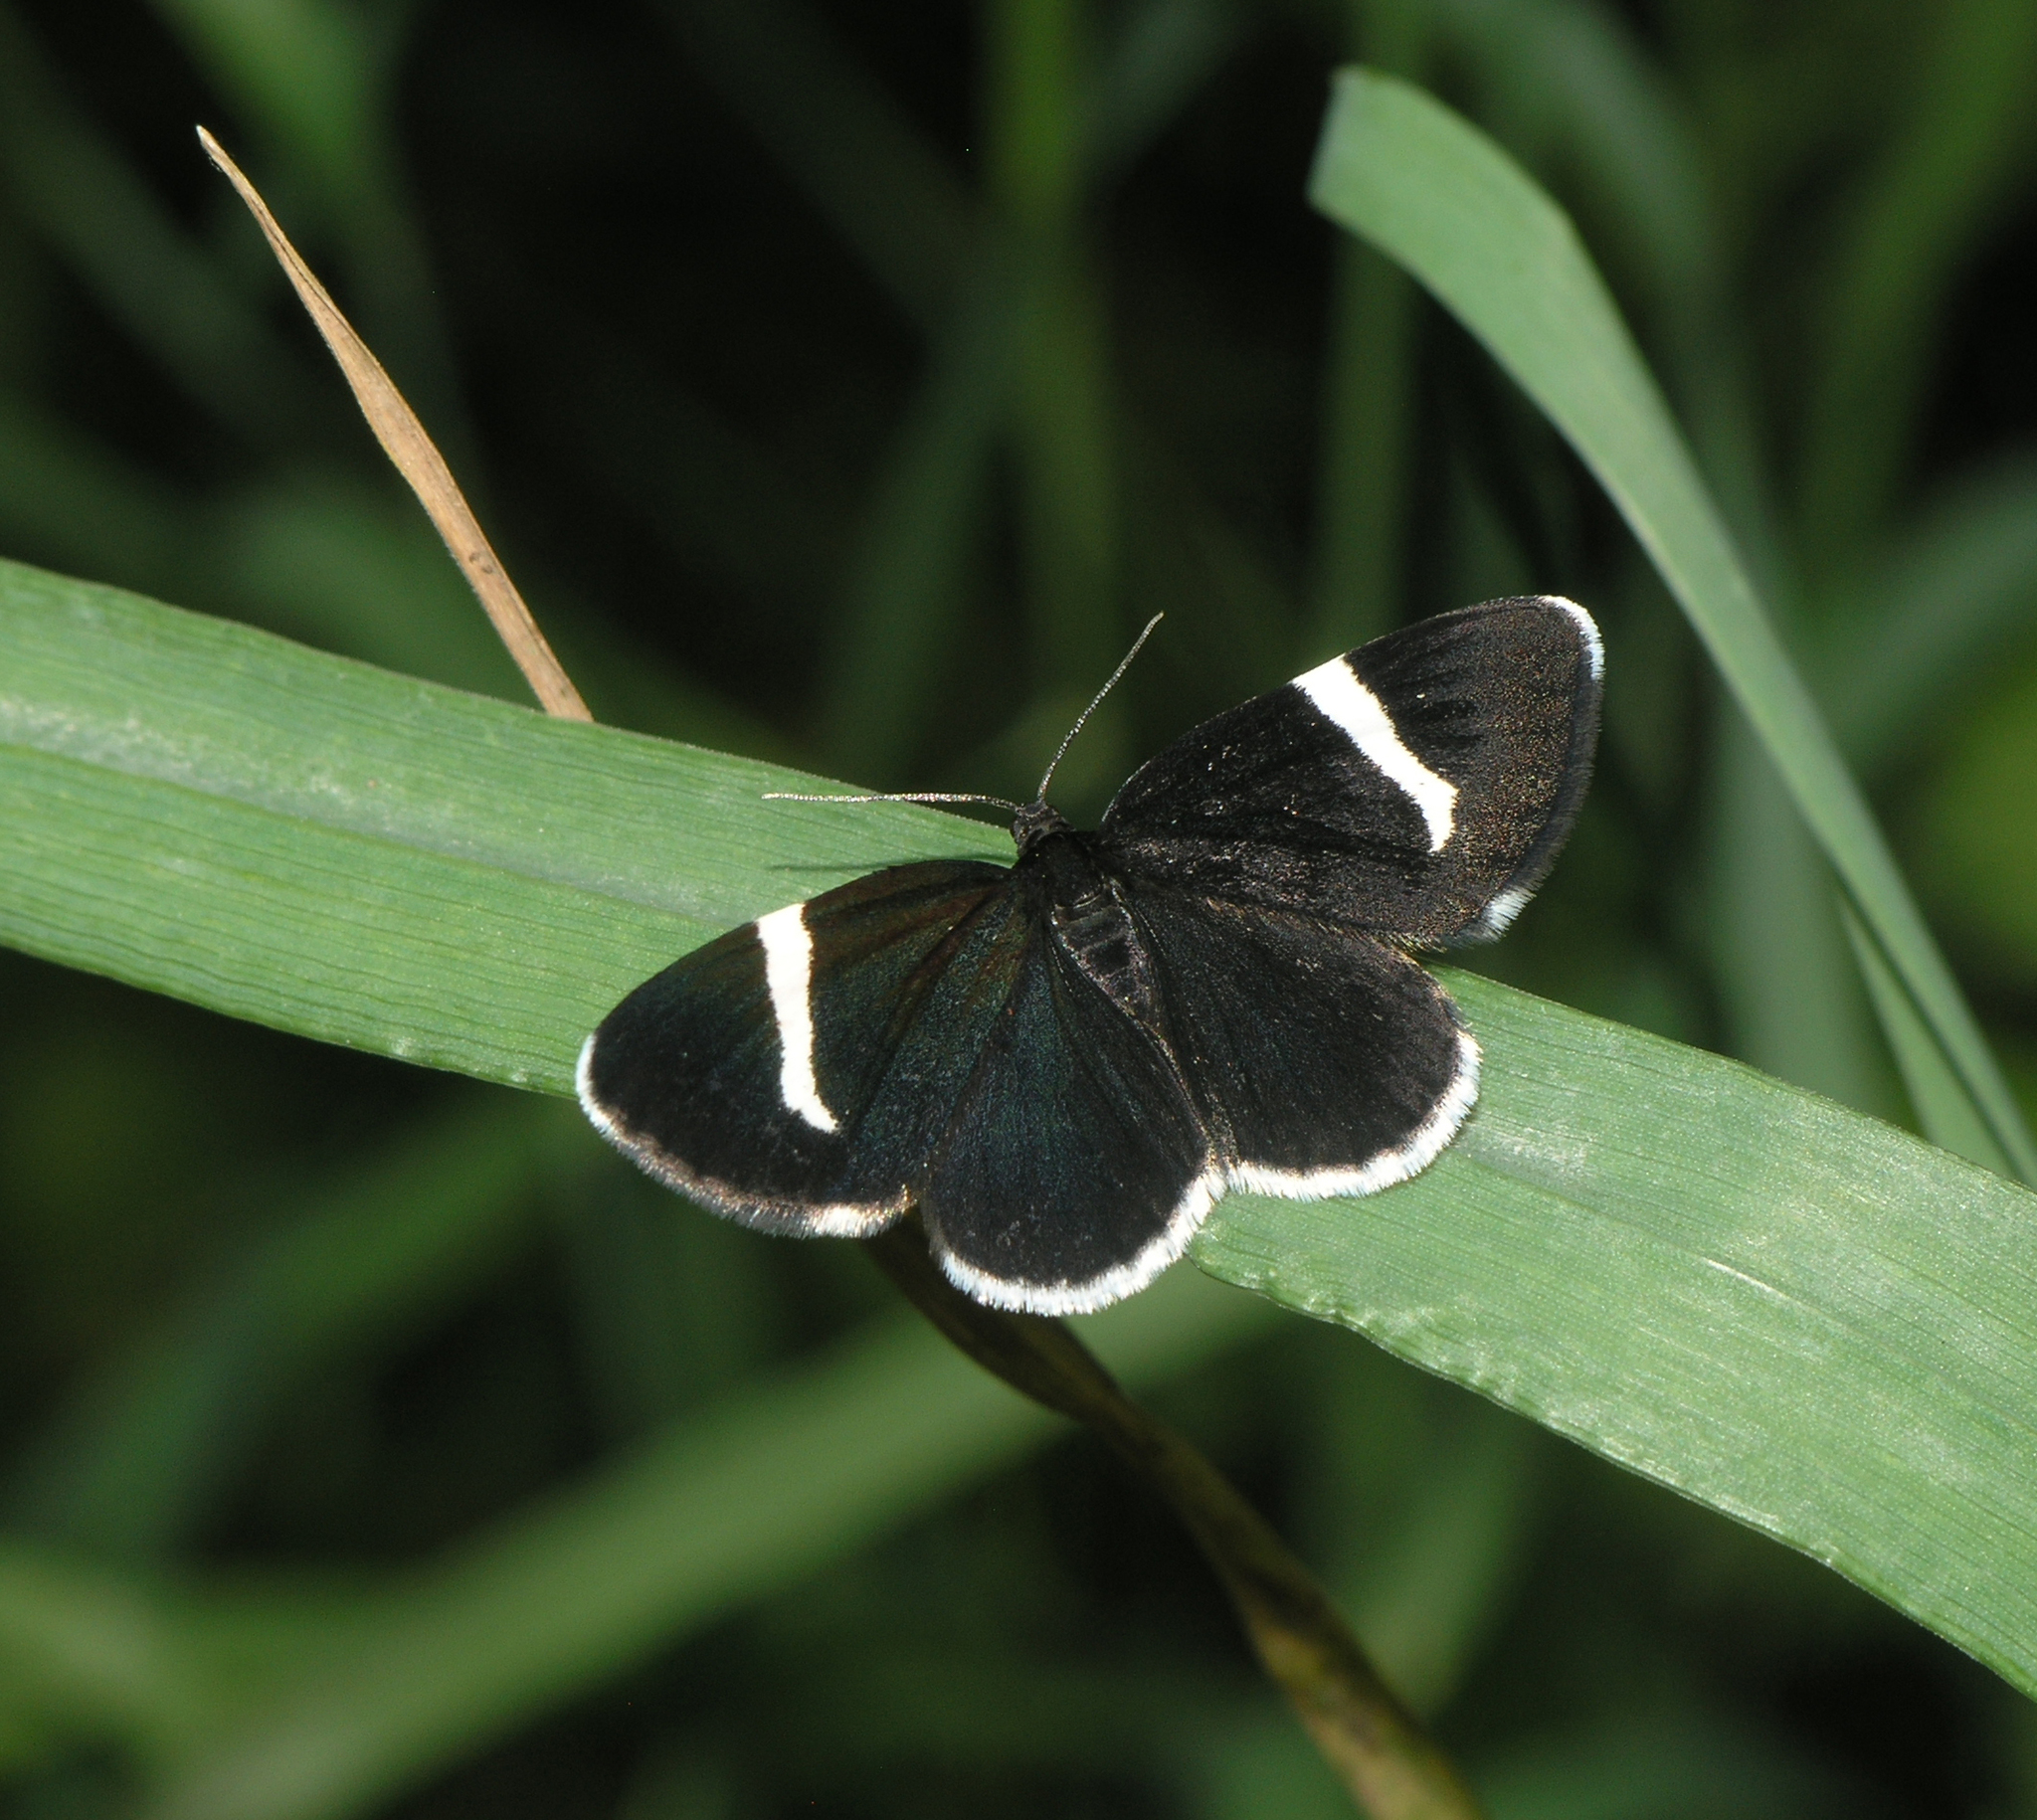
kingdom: Animalia
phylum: Arthropoda
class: Insecta
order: Lepidoptera
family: Geometridae
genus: Baptria
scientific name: Baptria tibiale
